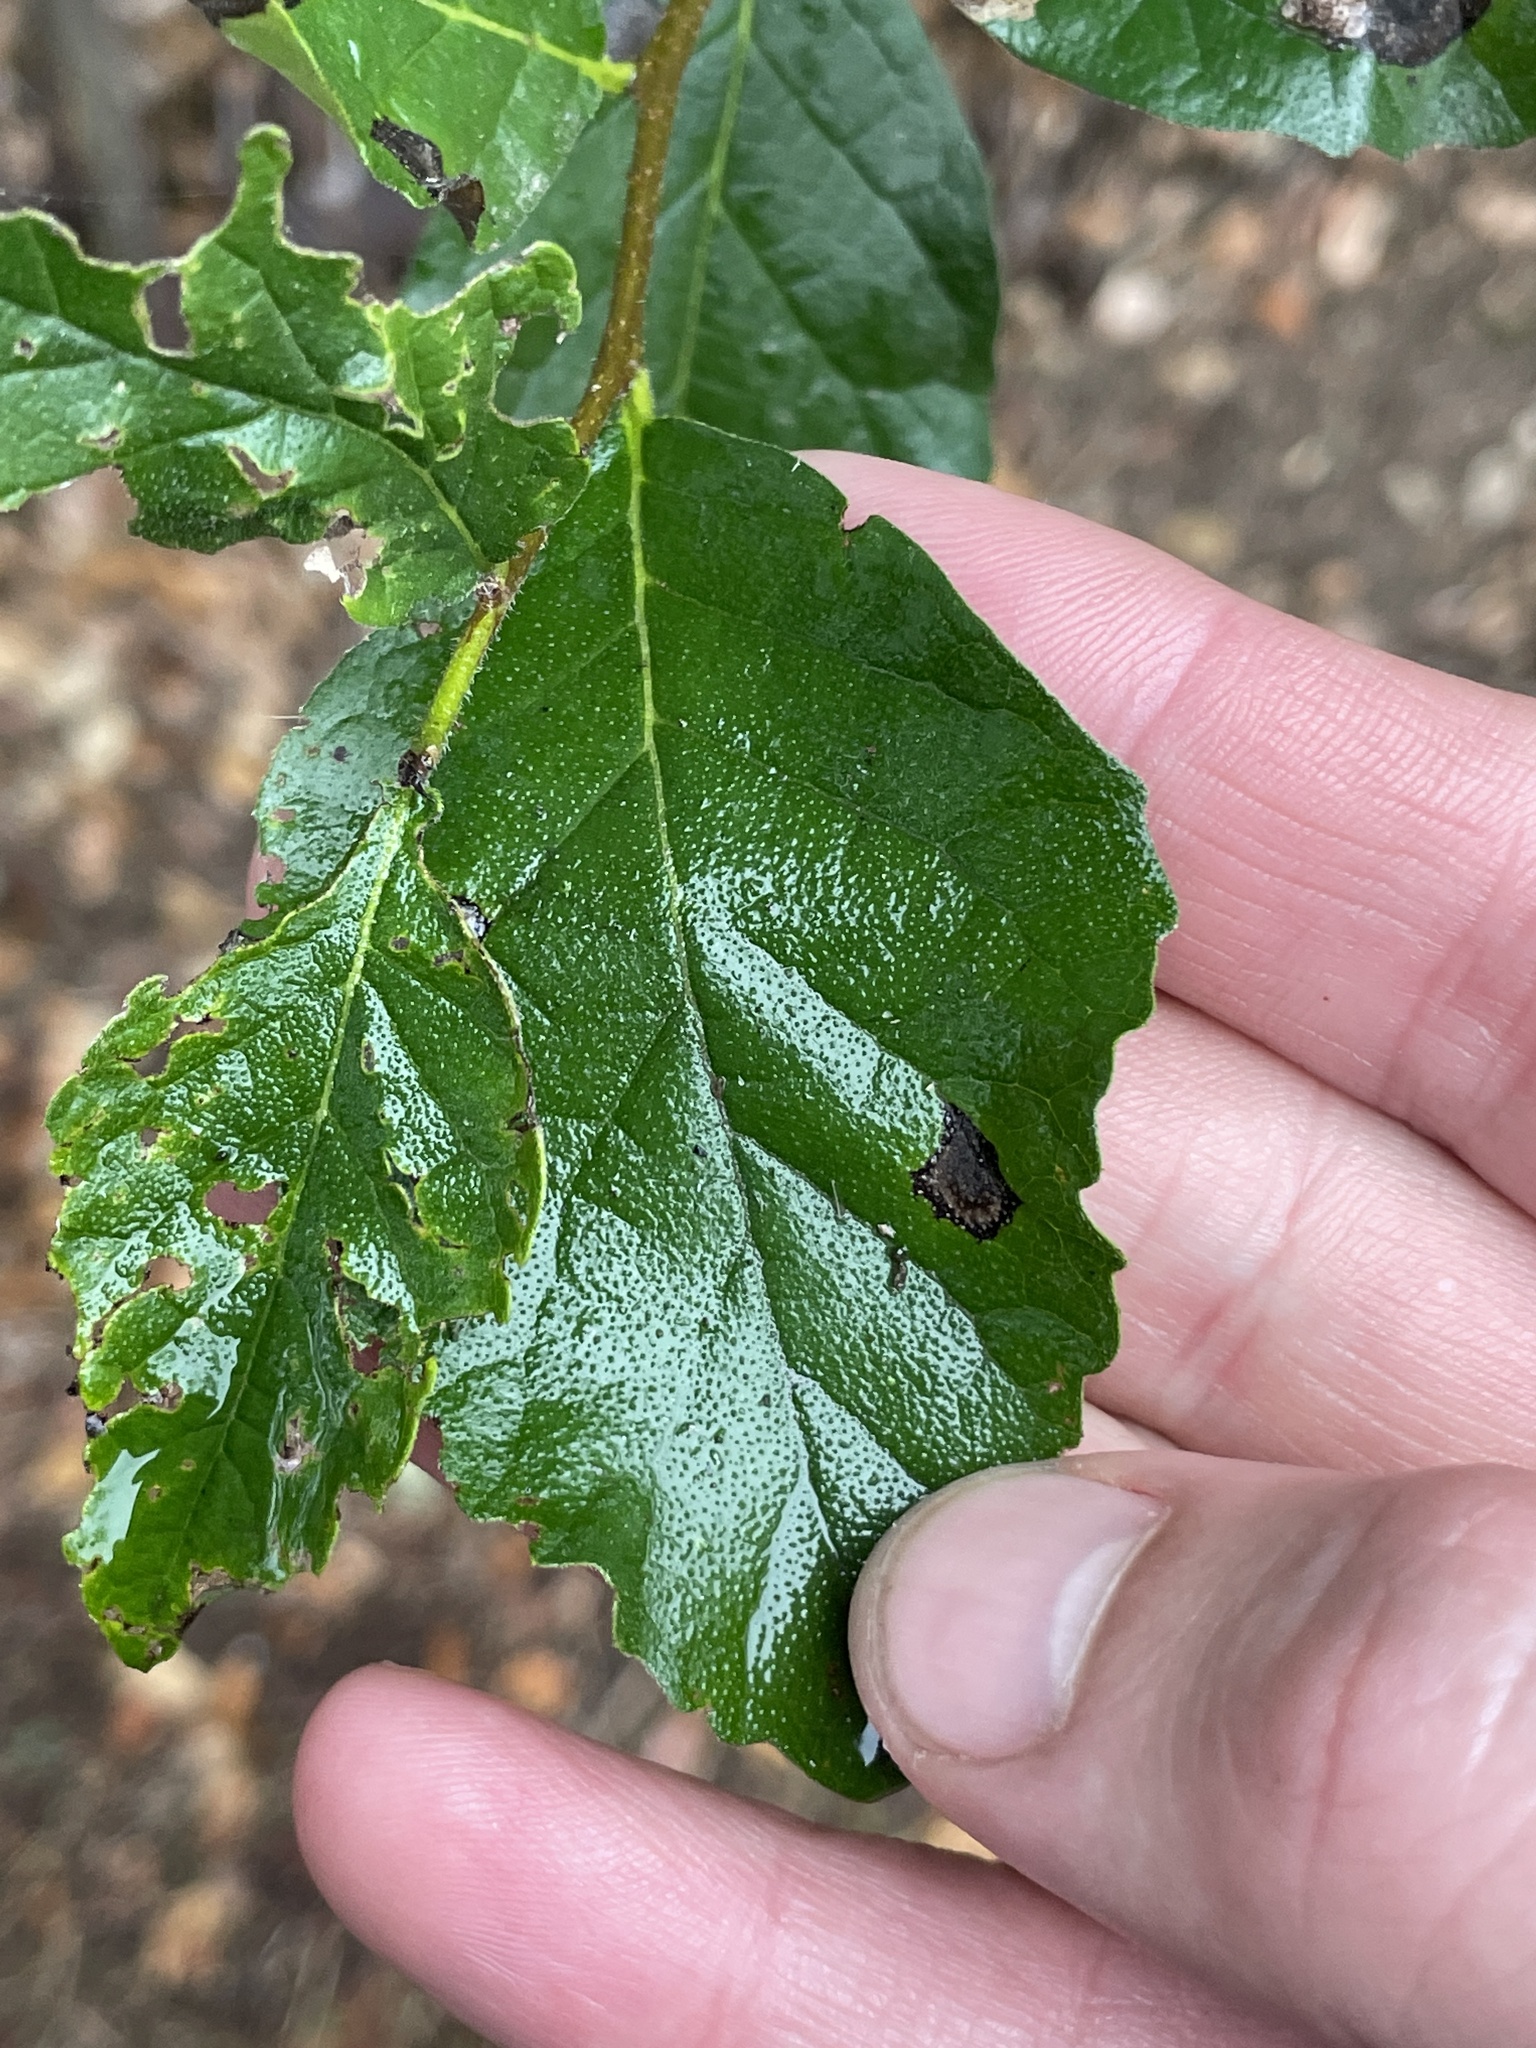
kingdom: Plantae
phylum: Tracheophyta
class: Magnoliopsida
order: Boraginales
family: Ehretiaceae
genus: Ehretia
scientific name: Ehretia anacua
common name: Sugarberry
